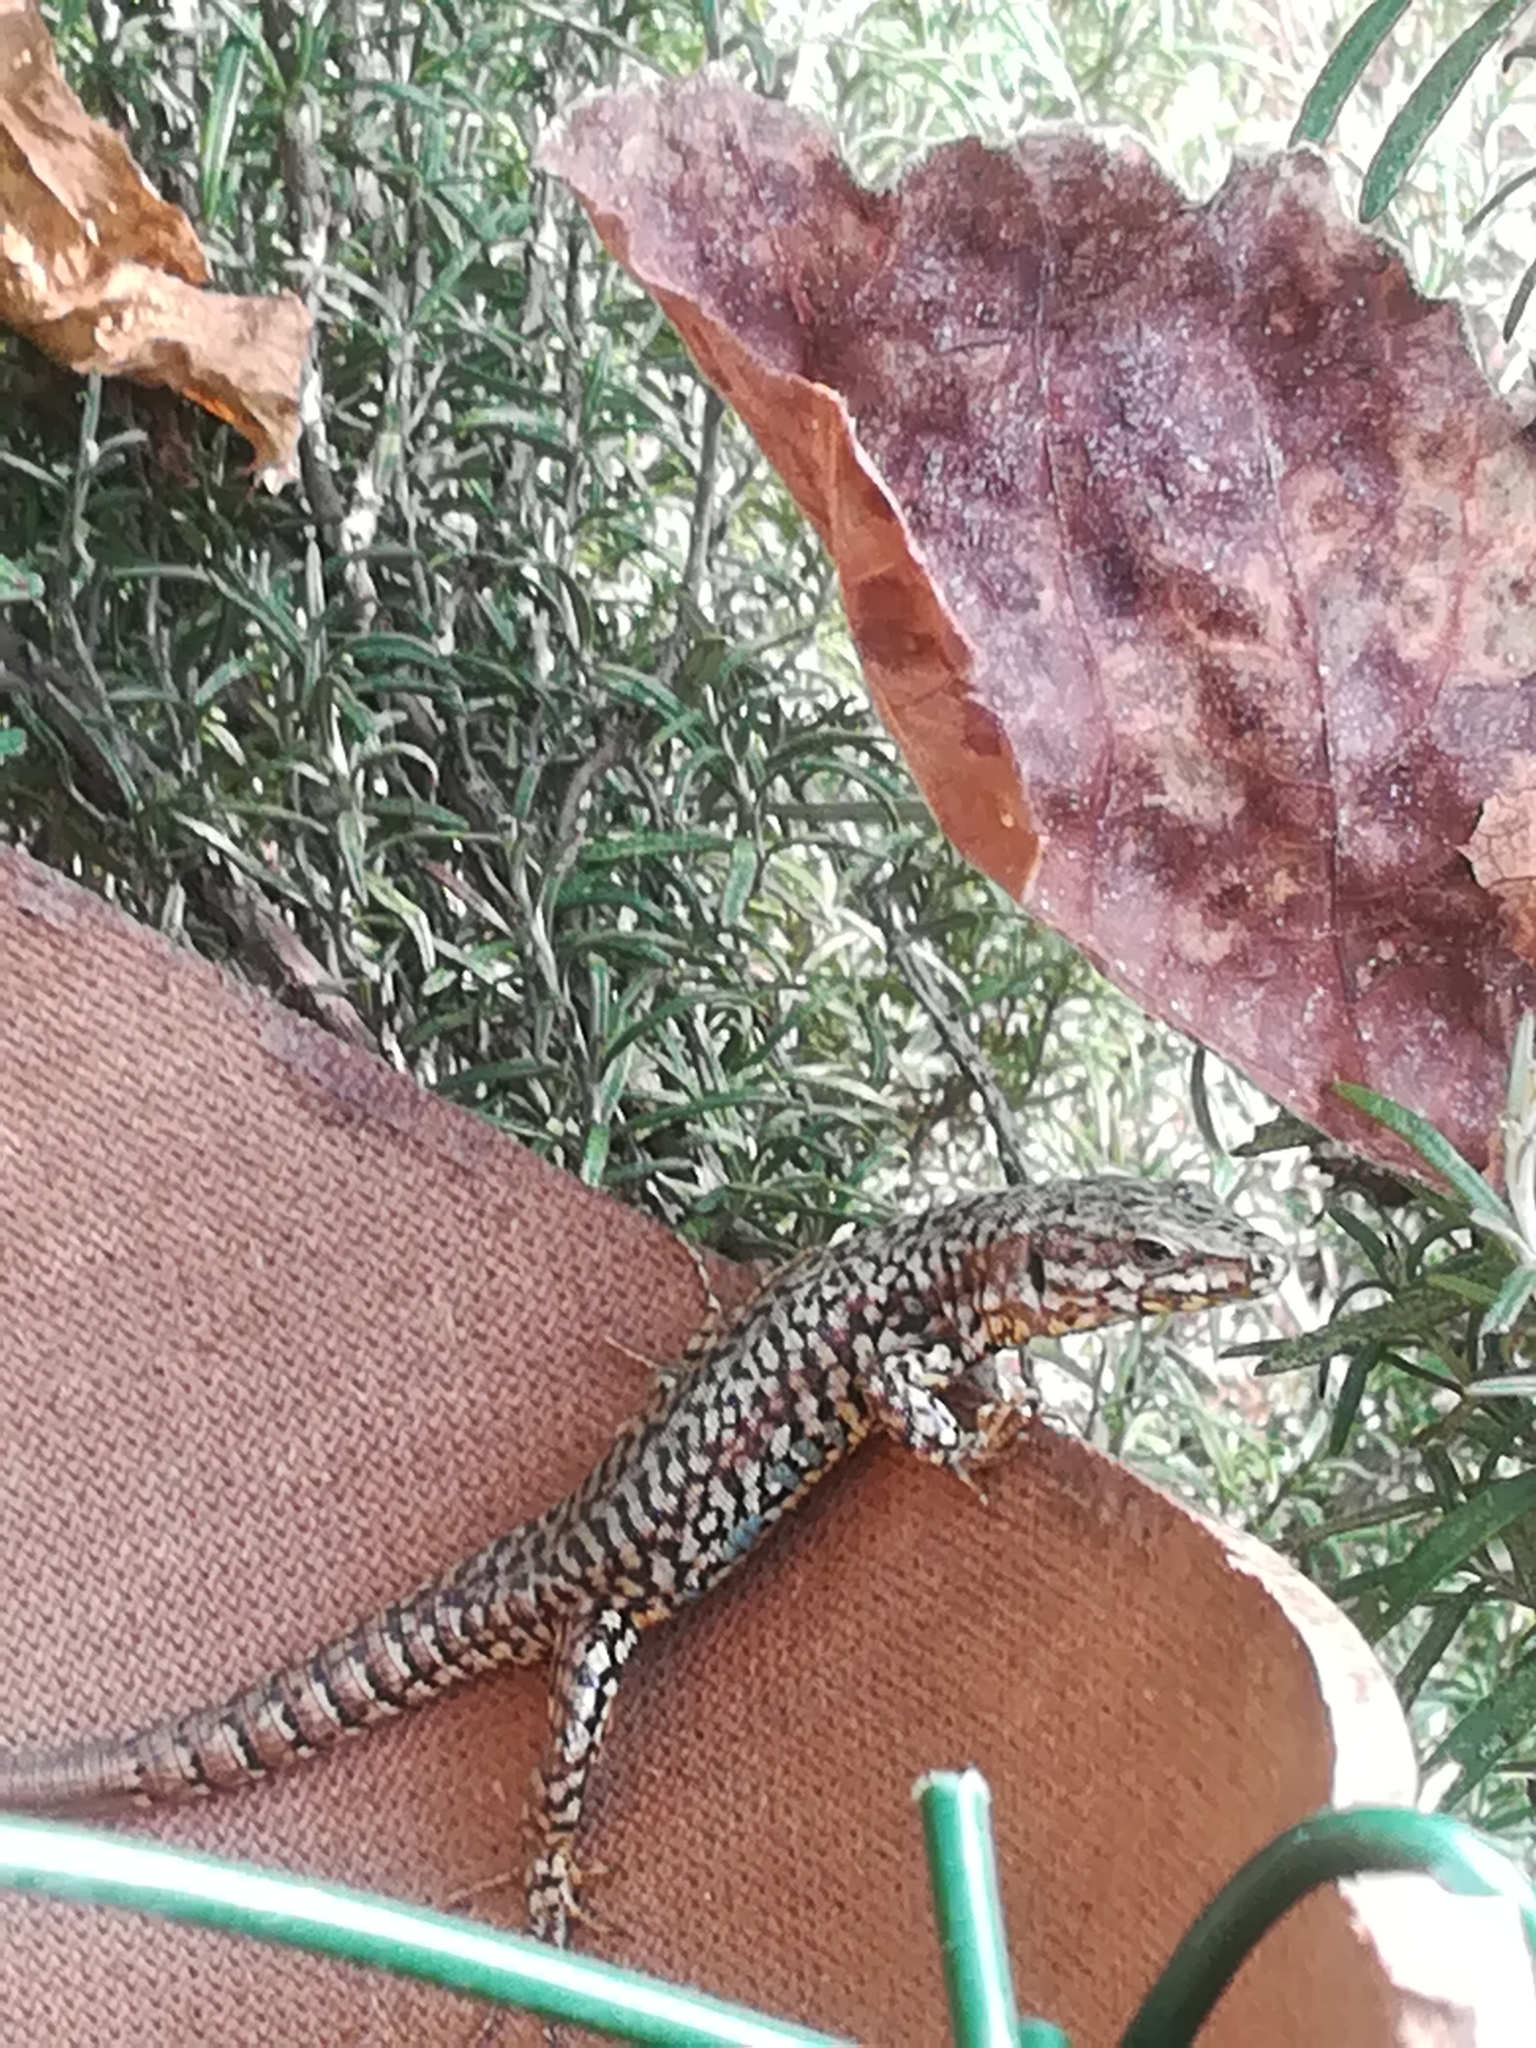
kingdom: Animalia
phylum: Chordata
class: Squamata
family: Lacertidae
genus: Podarcis
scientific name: Podarcis muralis
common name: Common wall lizard
